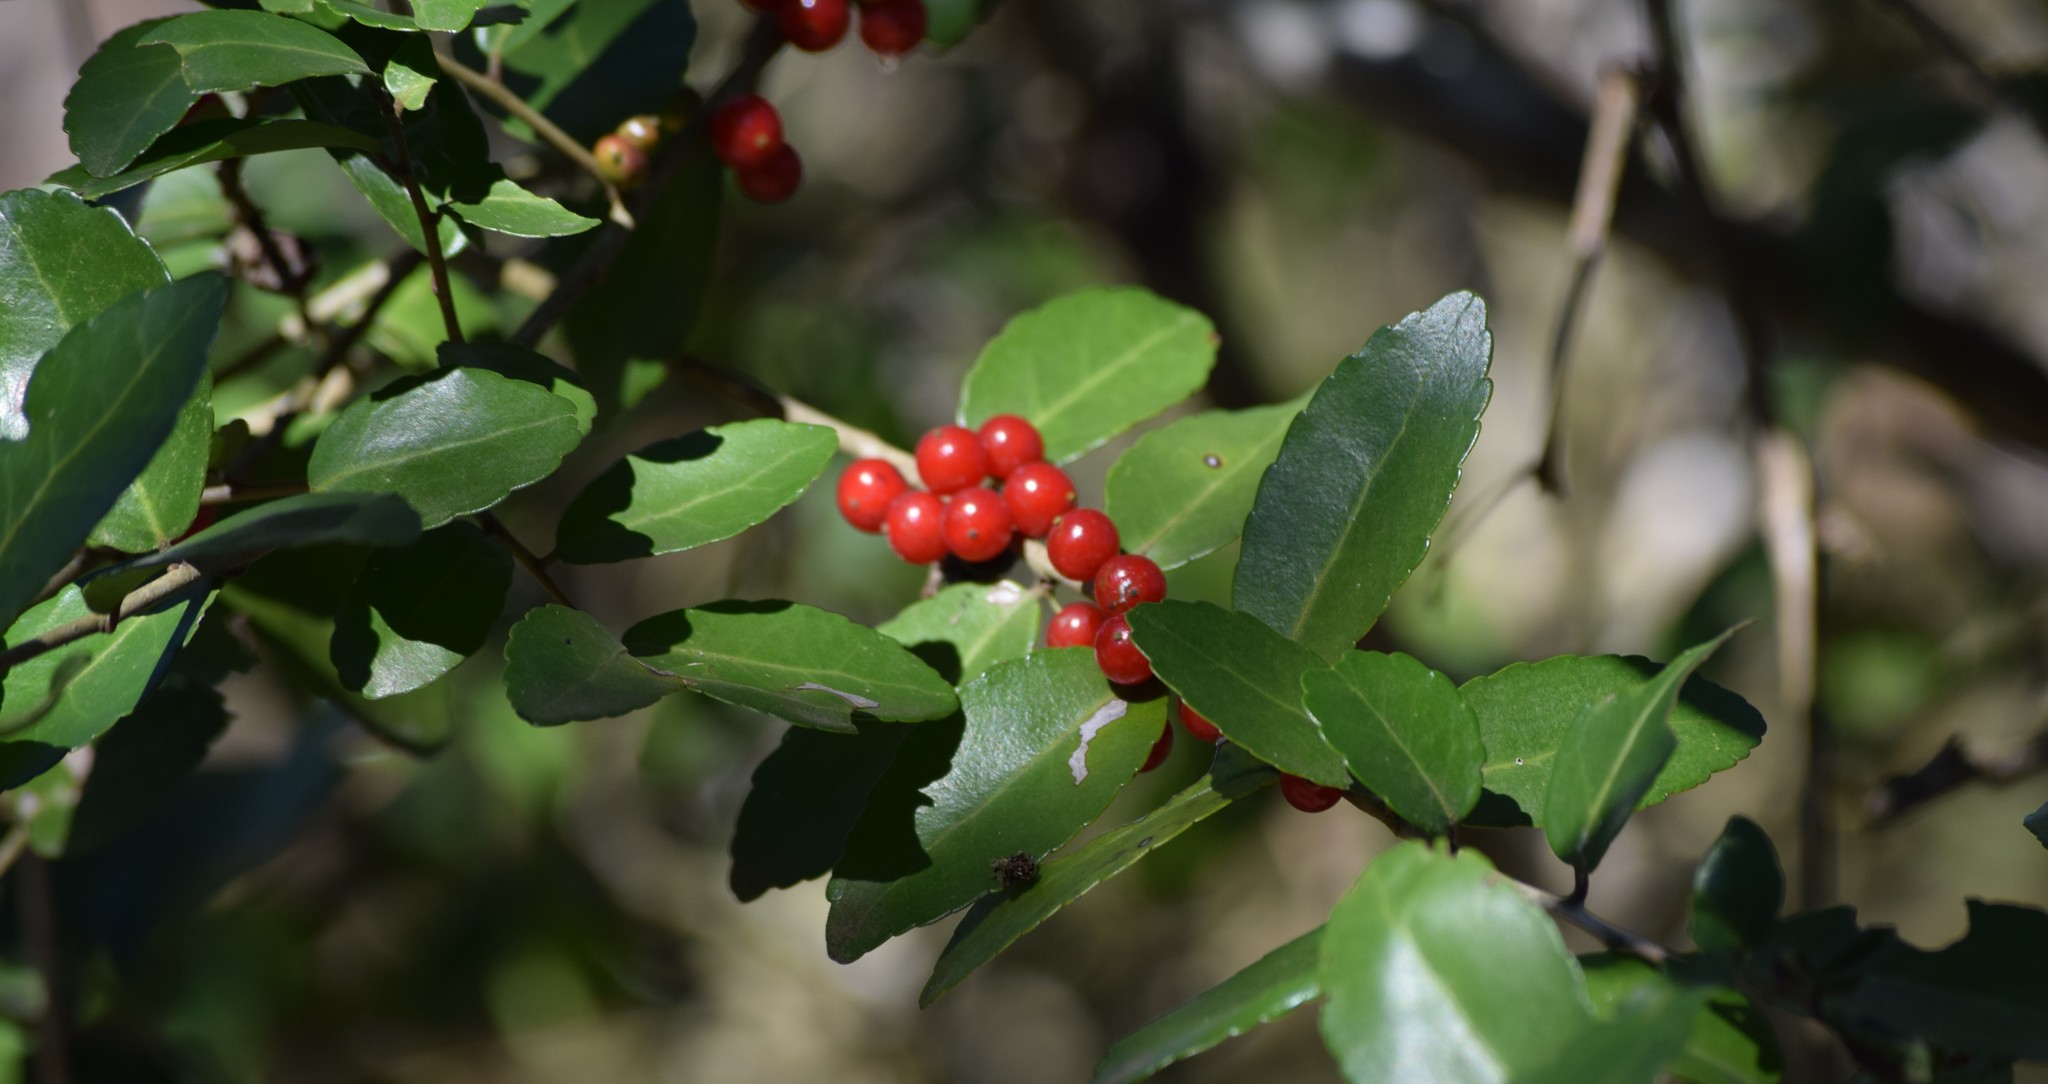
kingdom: Plantae
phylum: Tracheophyta
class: Magnoliopsida
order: Aquifoliales
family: Aquifoliaceae
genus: Ilex
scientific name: Ilex vomitoria
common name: Yaupon holly
